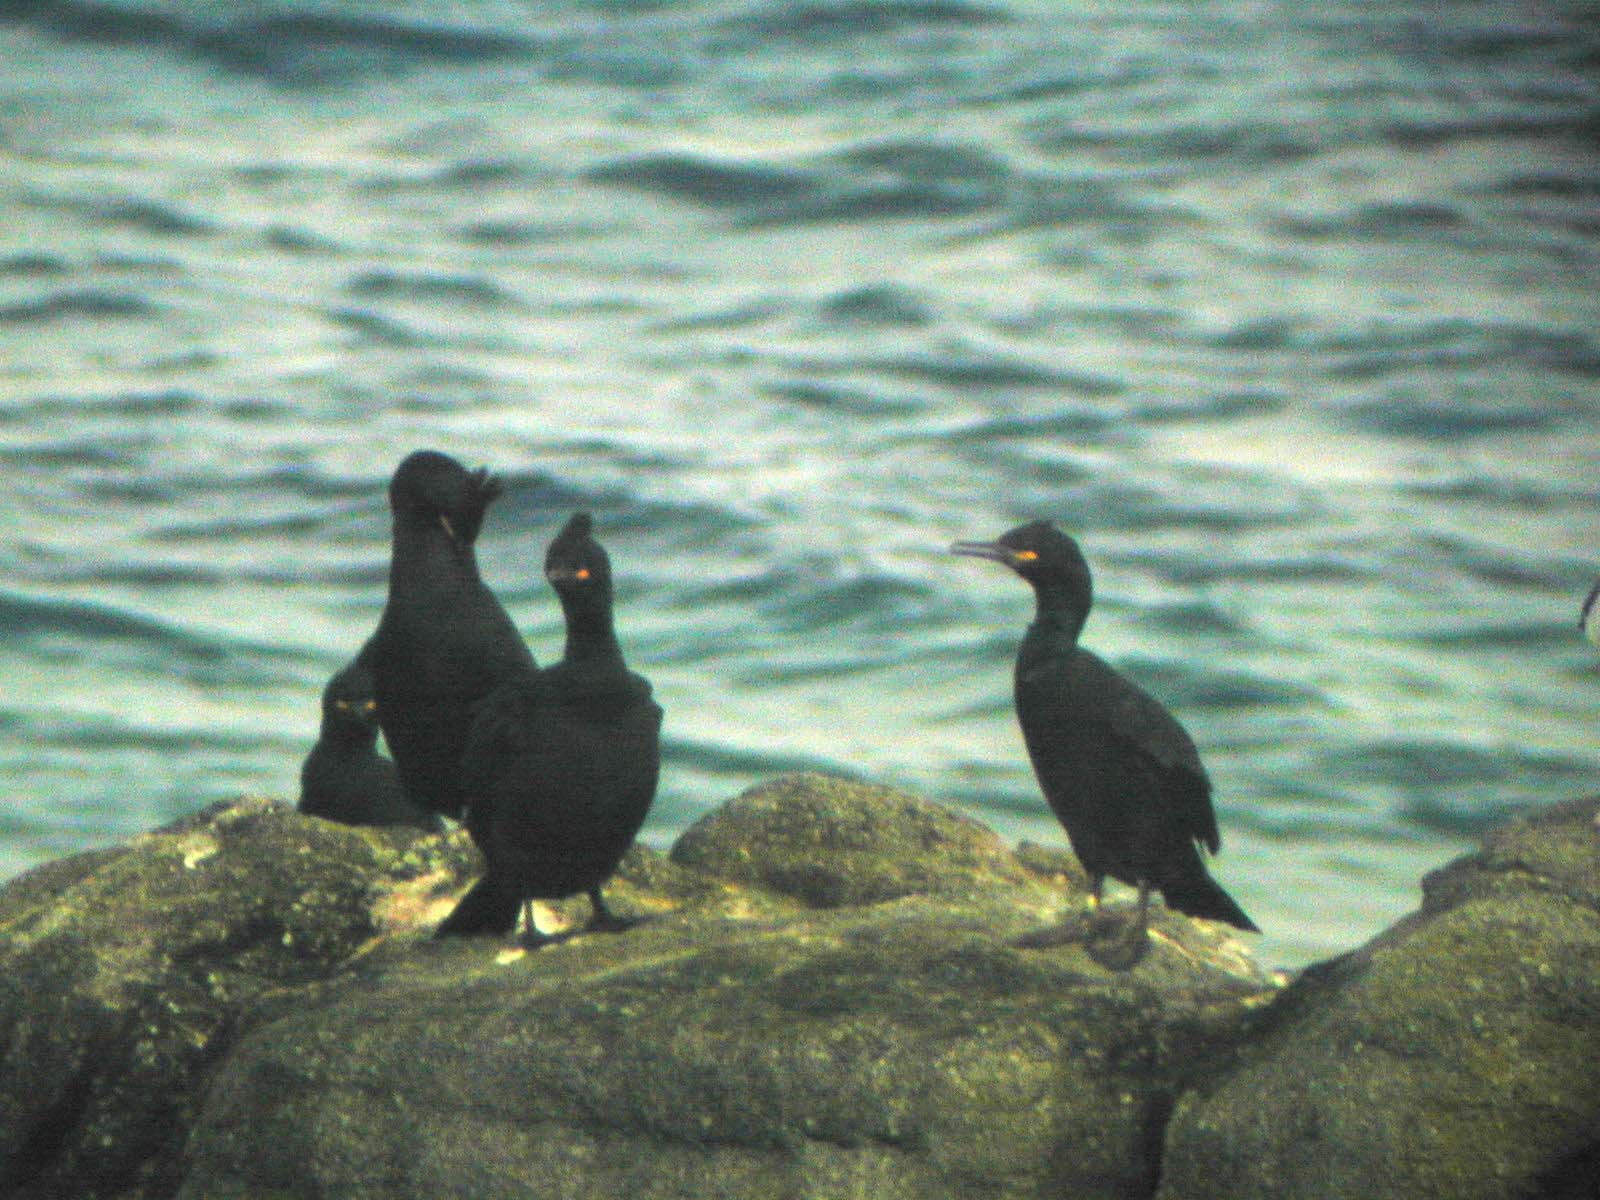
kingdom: Animalia
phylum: Chordata
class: Aves
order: Suliformes
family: Phalacrocoracidae
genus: Phalacrocorax
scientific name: Phalacrocorax aristotelis
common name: European shag
